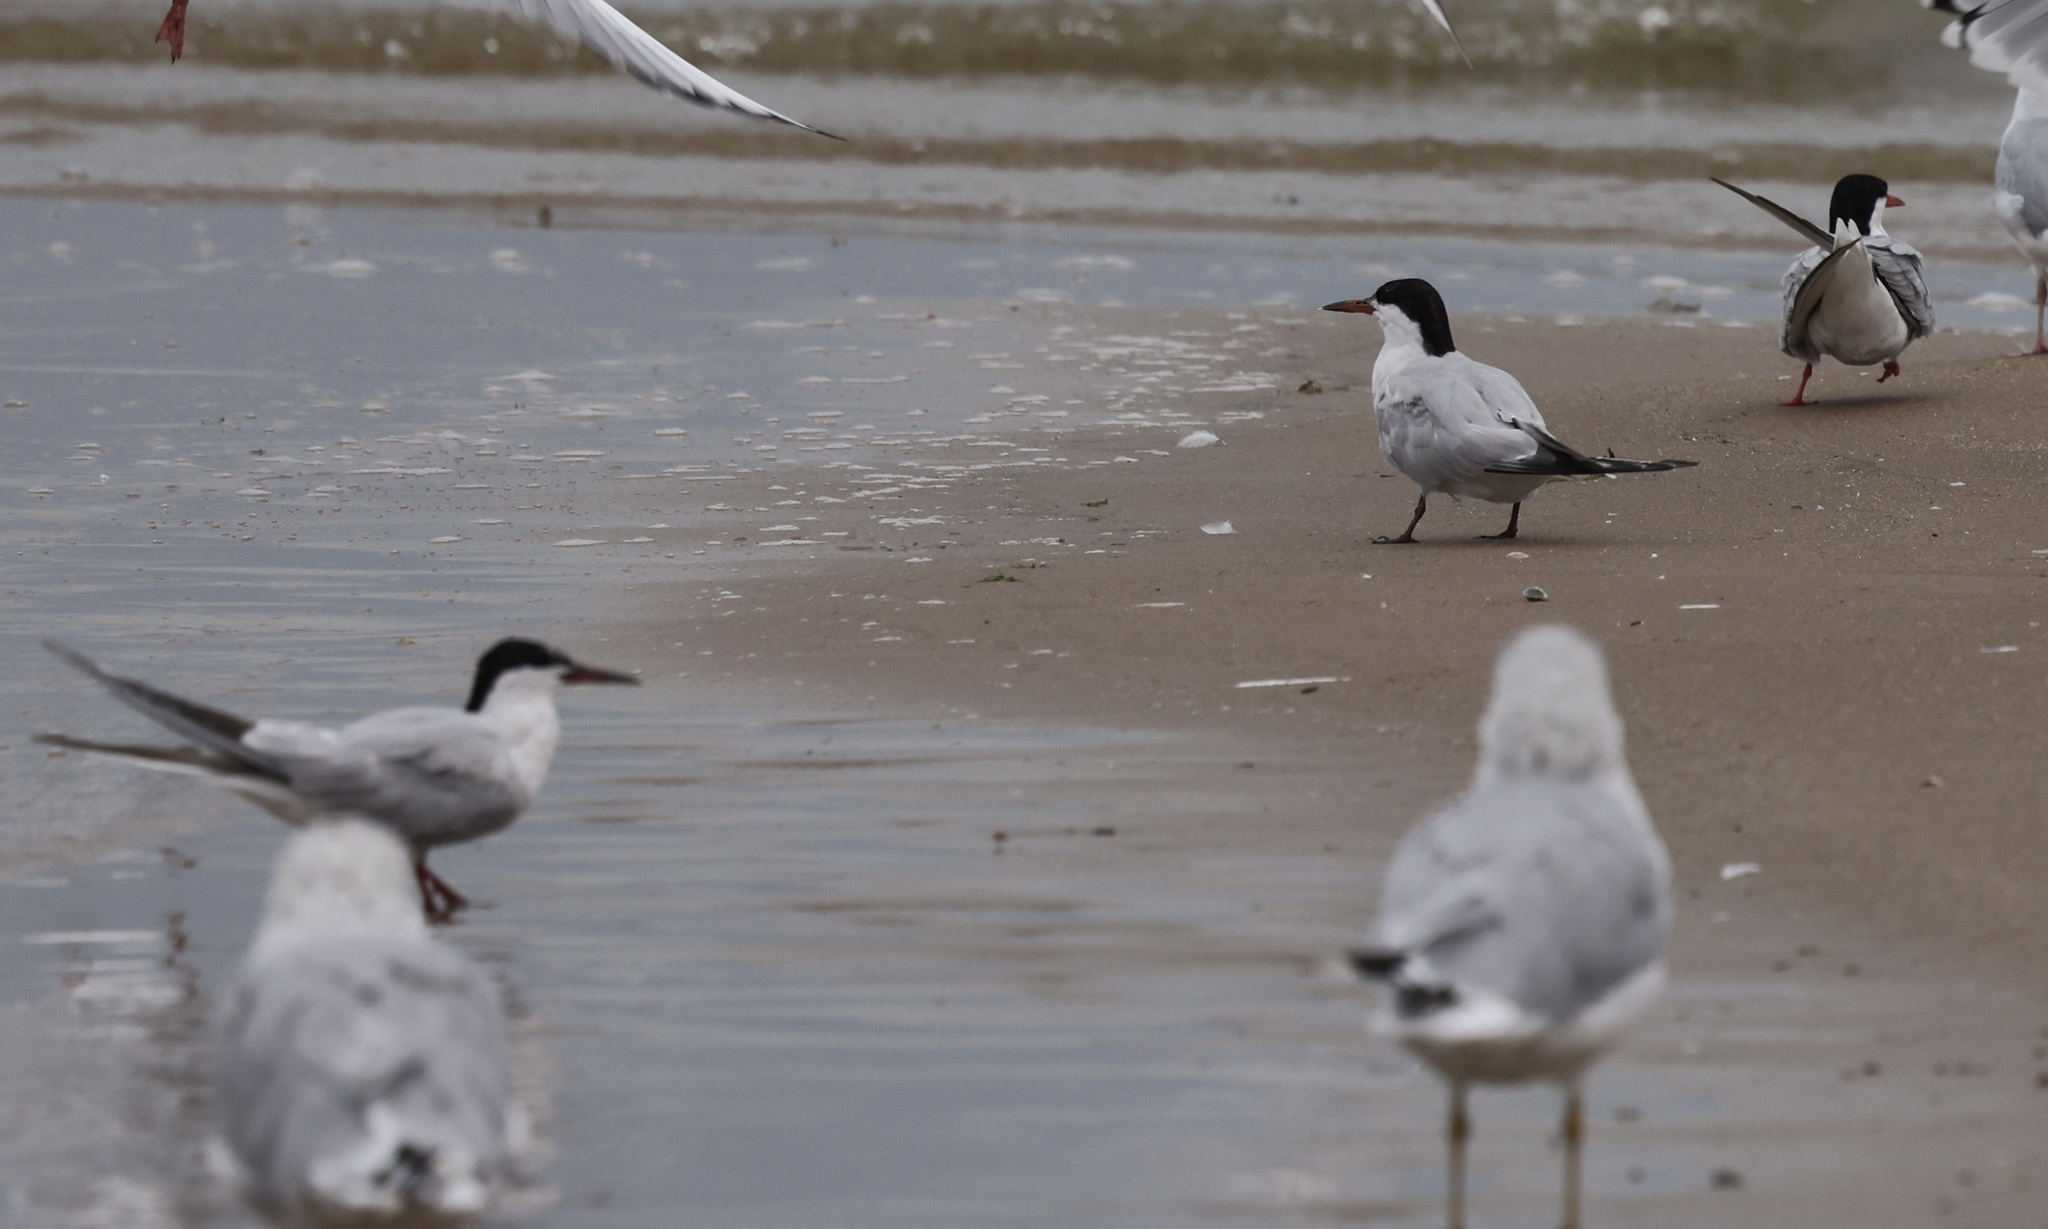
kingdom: Animalia
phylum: Chordata
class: Aves
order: Charadriiformes
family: Laridae
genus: Sterna
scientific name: Sterna hirundo
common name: Common tern
